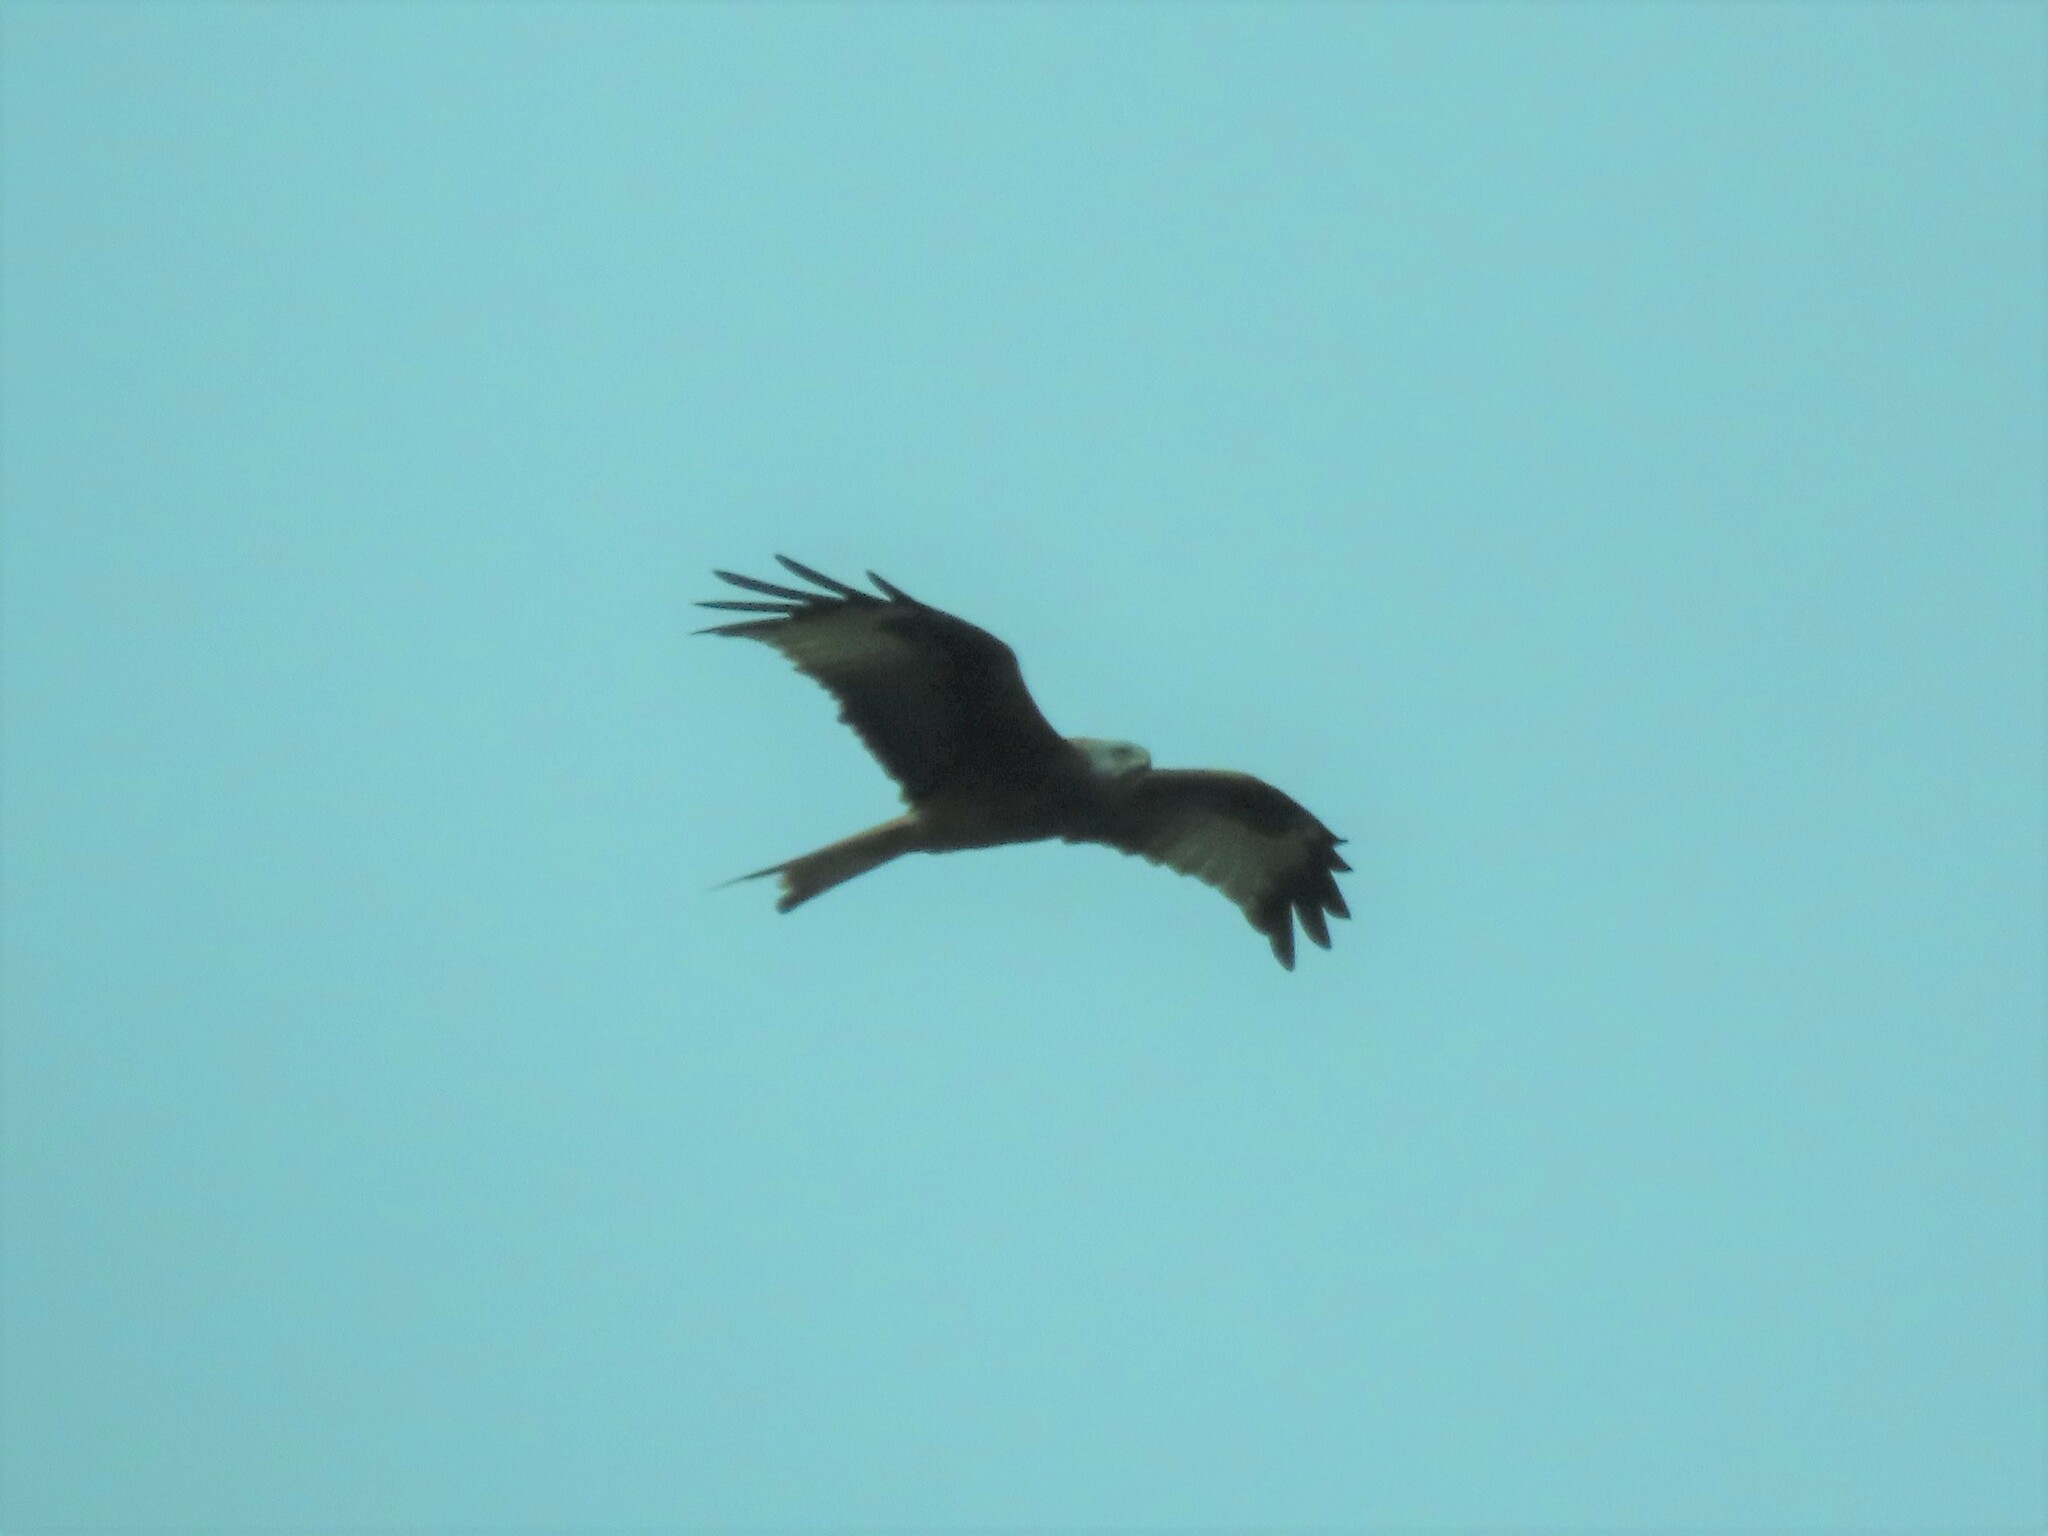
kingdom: Animalia
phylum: Chordata
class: Aves
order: Accipitriformes
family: Accipitridae
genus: Milvus
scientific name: Milvus milvus
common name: Red kite
